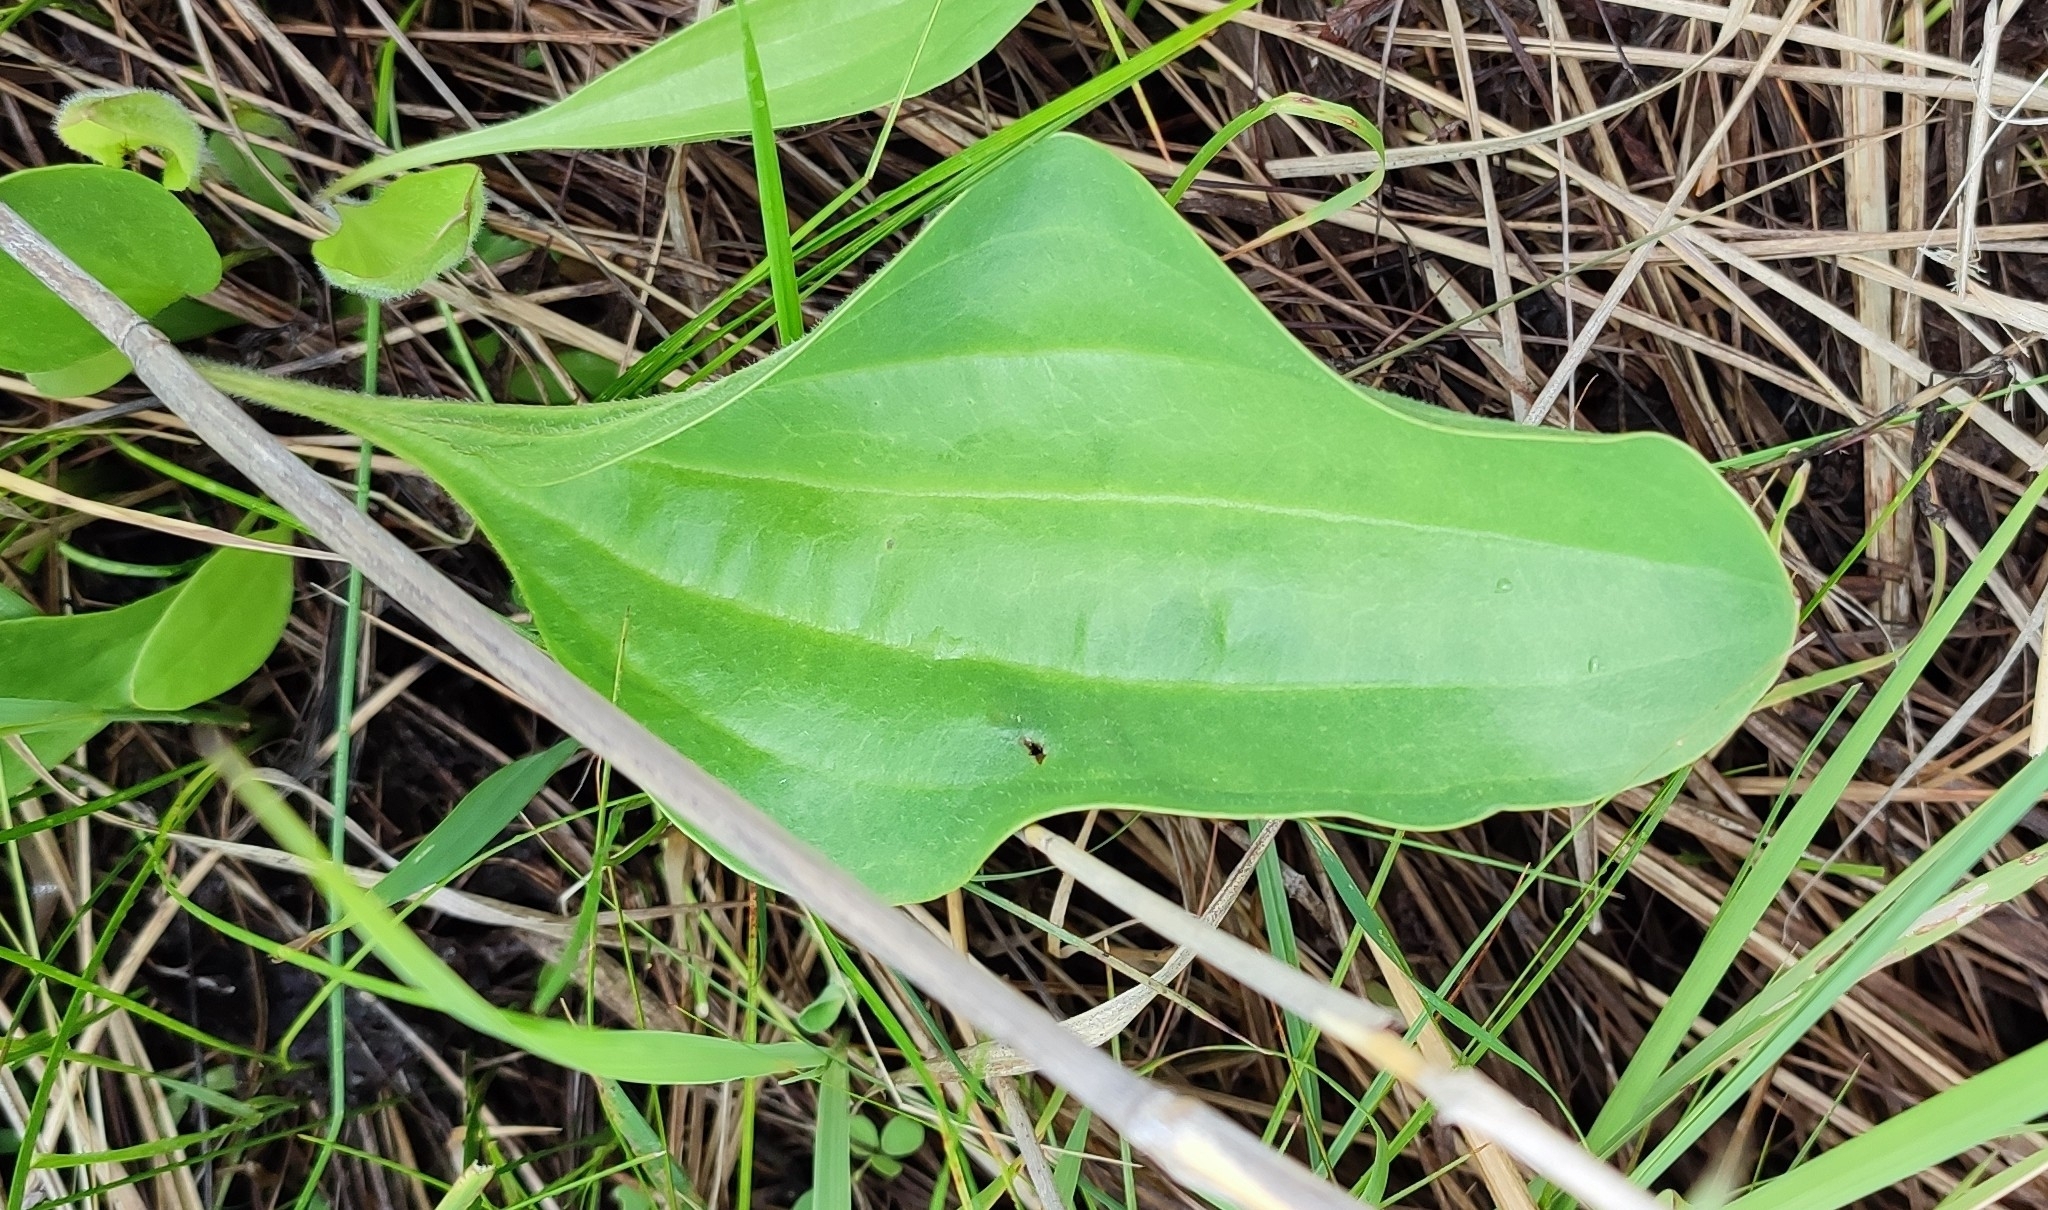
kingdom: Plantae
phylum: Tracheophyta
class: Magnoliopsida
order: Lamiales
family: Plantaginaceae
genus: Plantago
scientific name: Plantago cornuti
